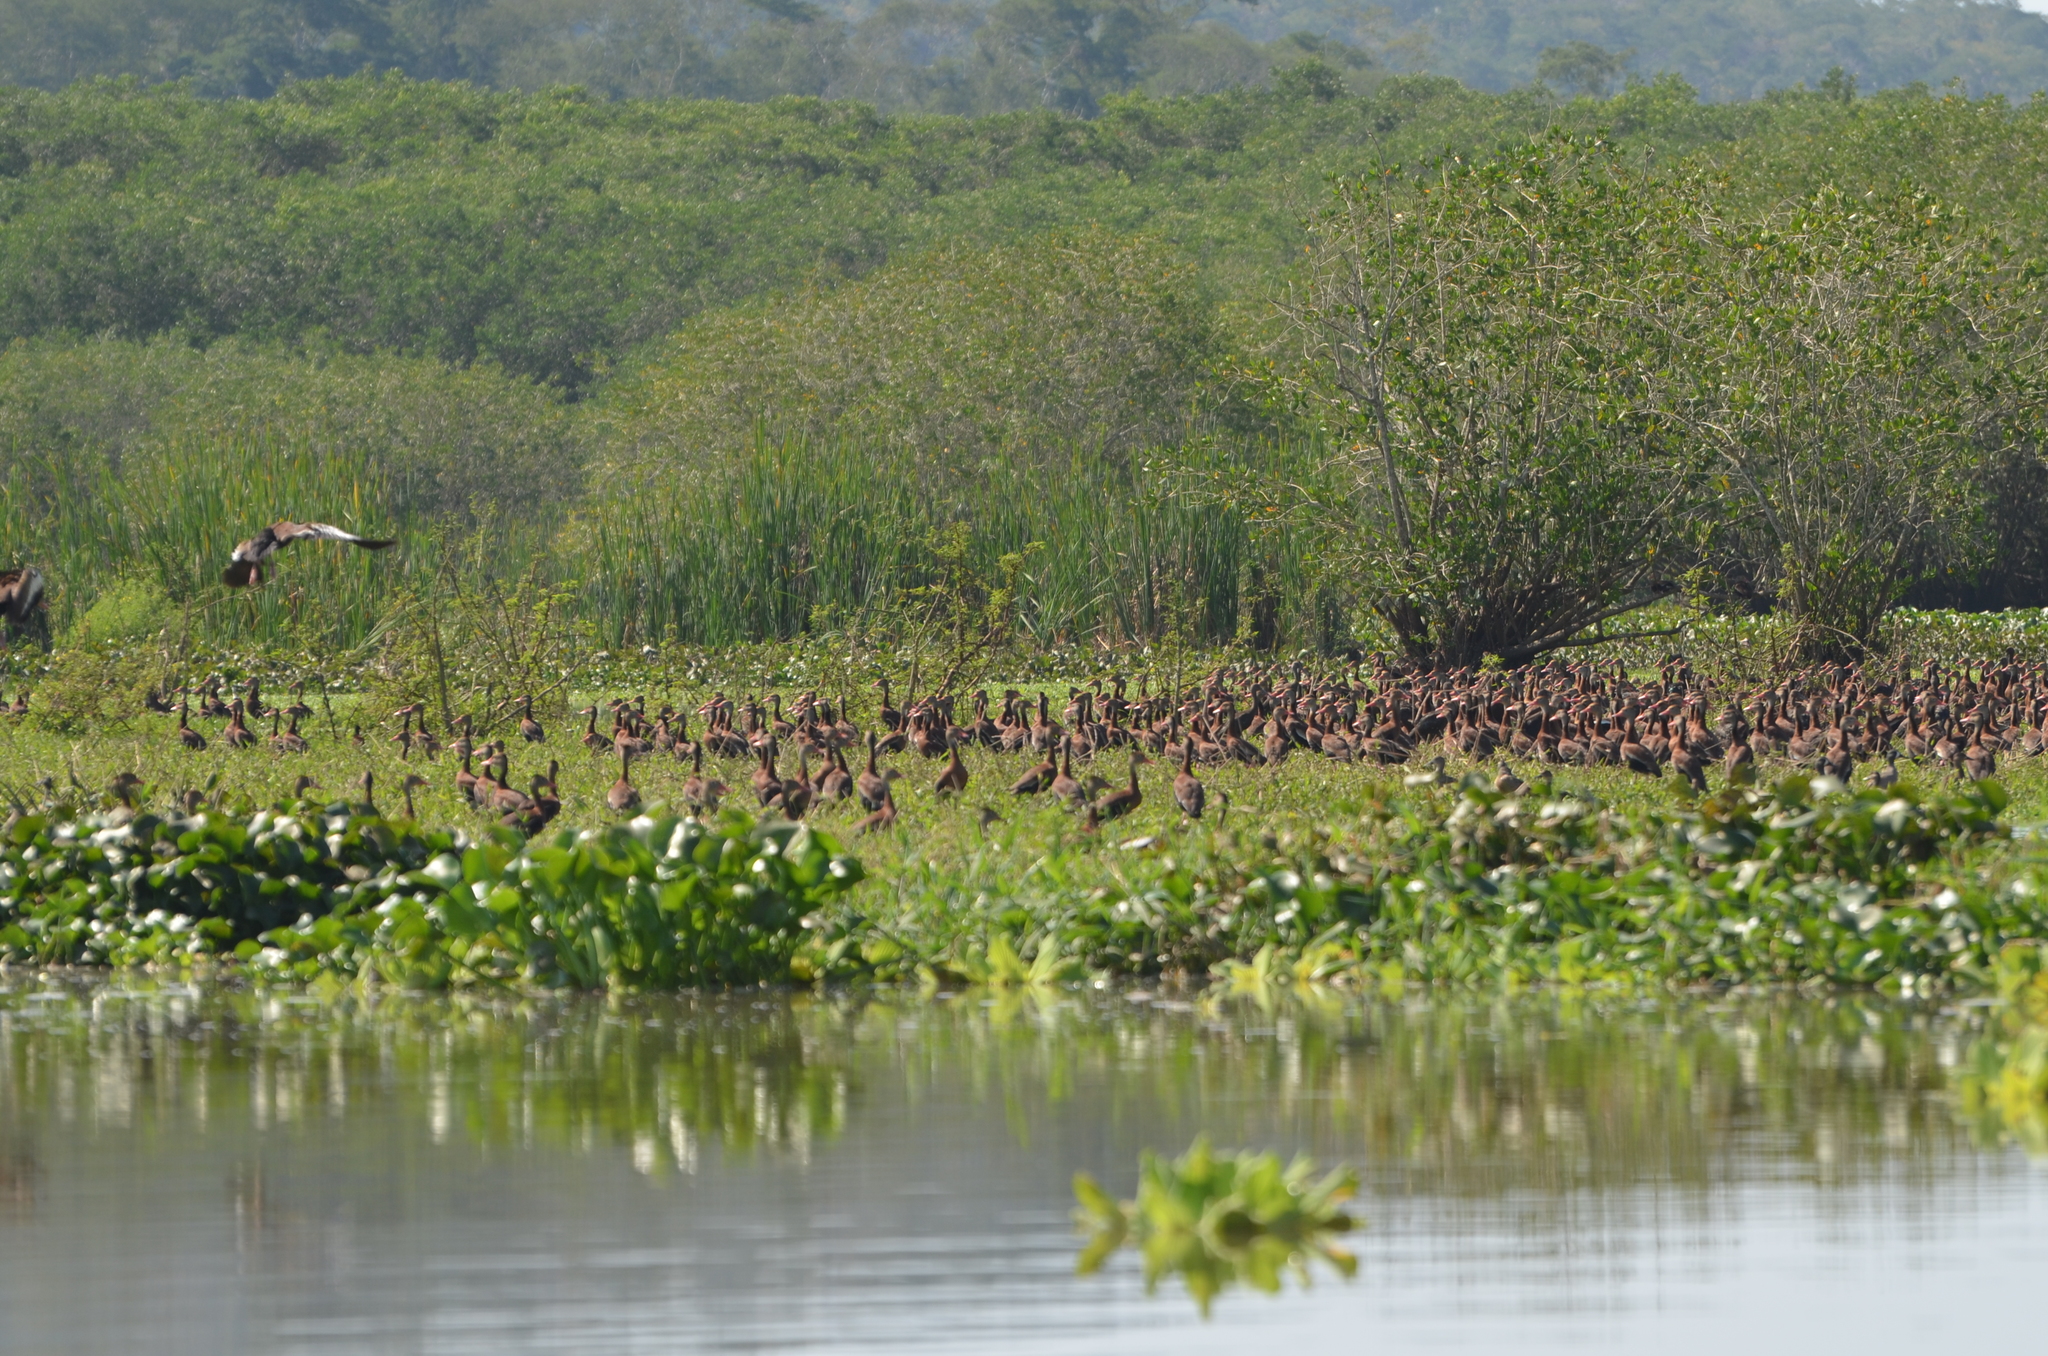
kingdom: Animalia
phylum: Chordata
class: Aves
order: Anseriformes
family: Anatidae
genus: Dendrocygna
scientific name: Dendrocygna autumnalis
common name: Black-bellied whistling duck
